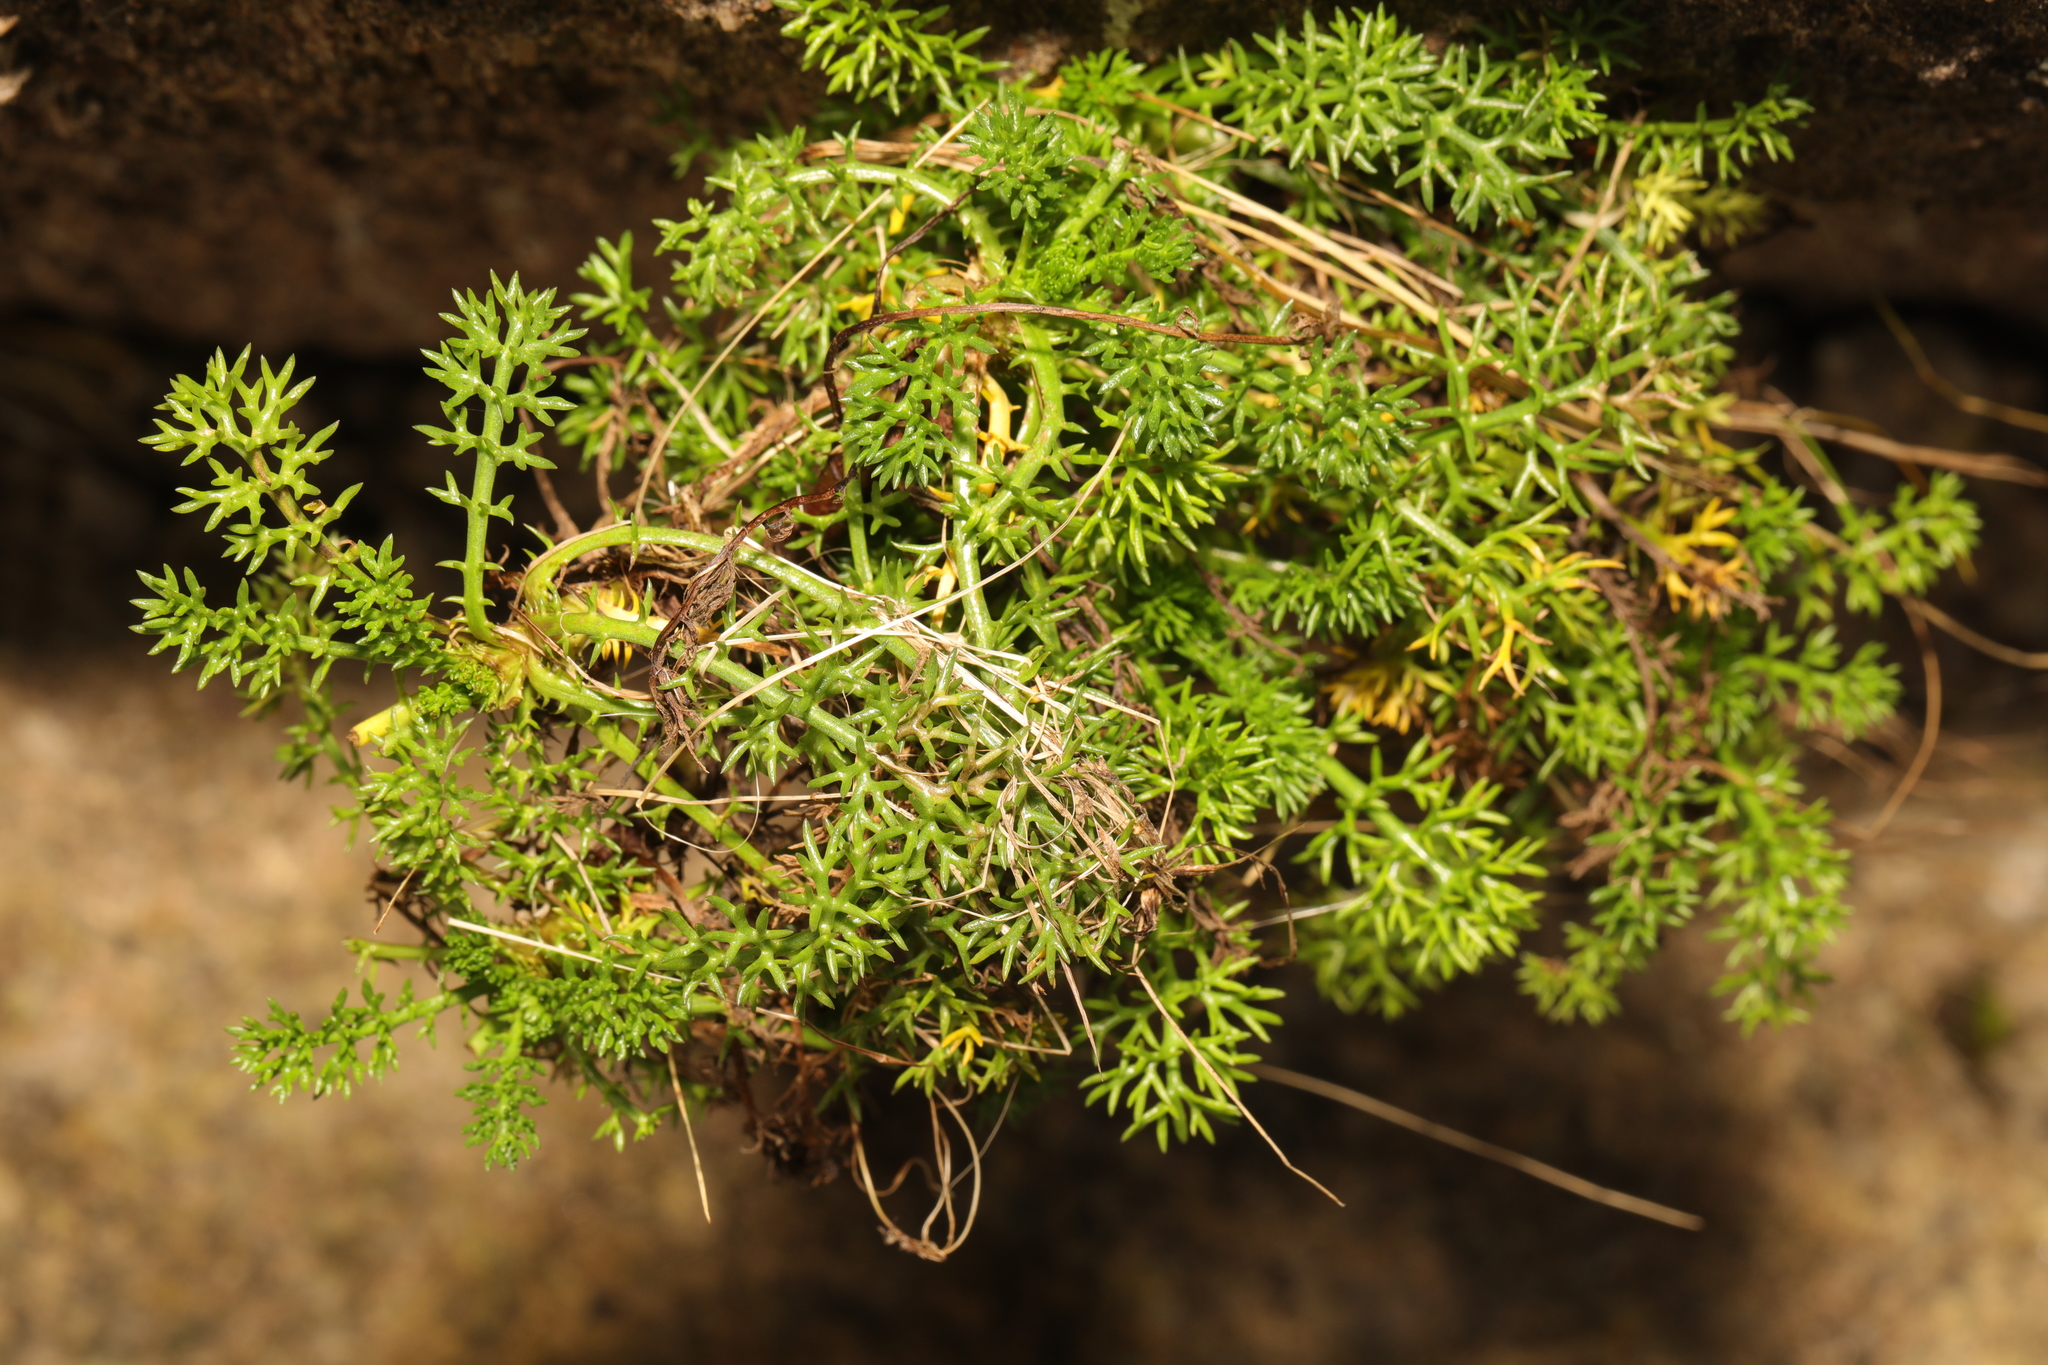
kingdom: Plantae
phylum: Tracheophyta
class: Magnoliopsida
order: Asterales
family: Asteraceae
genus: Tripleurospermum
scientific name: Tripleurospermum maritimum
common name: Sea mayweed
